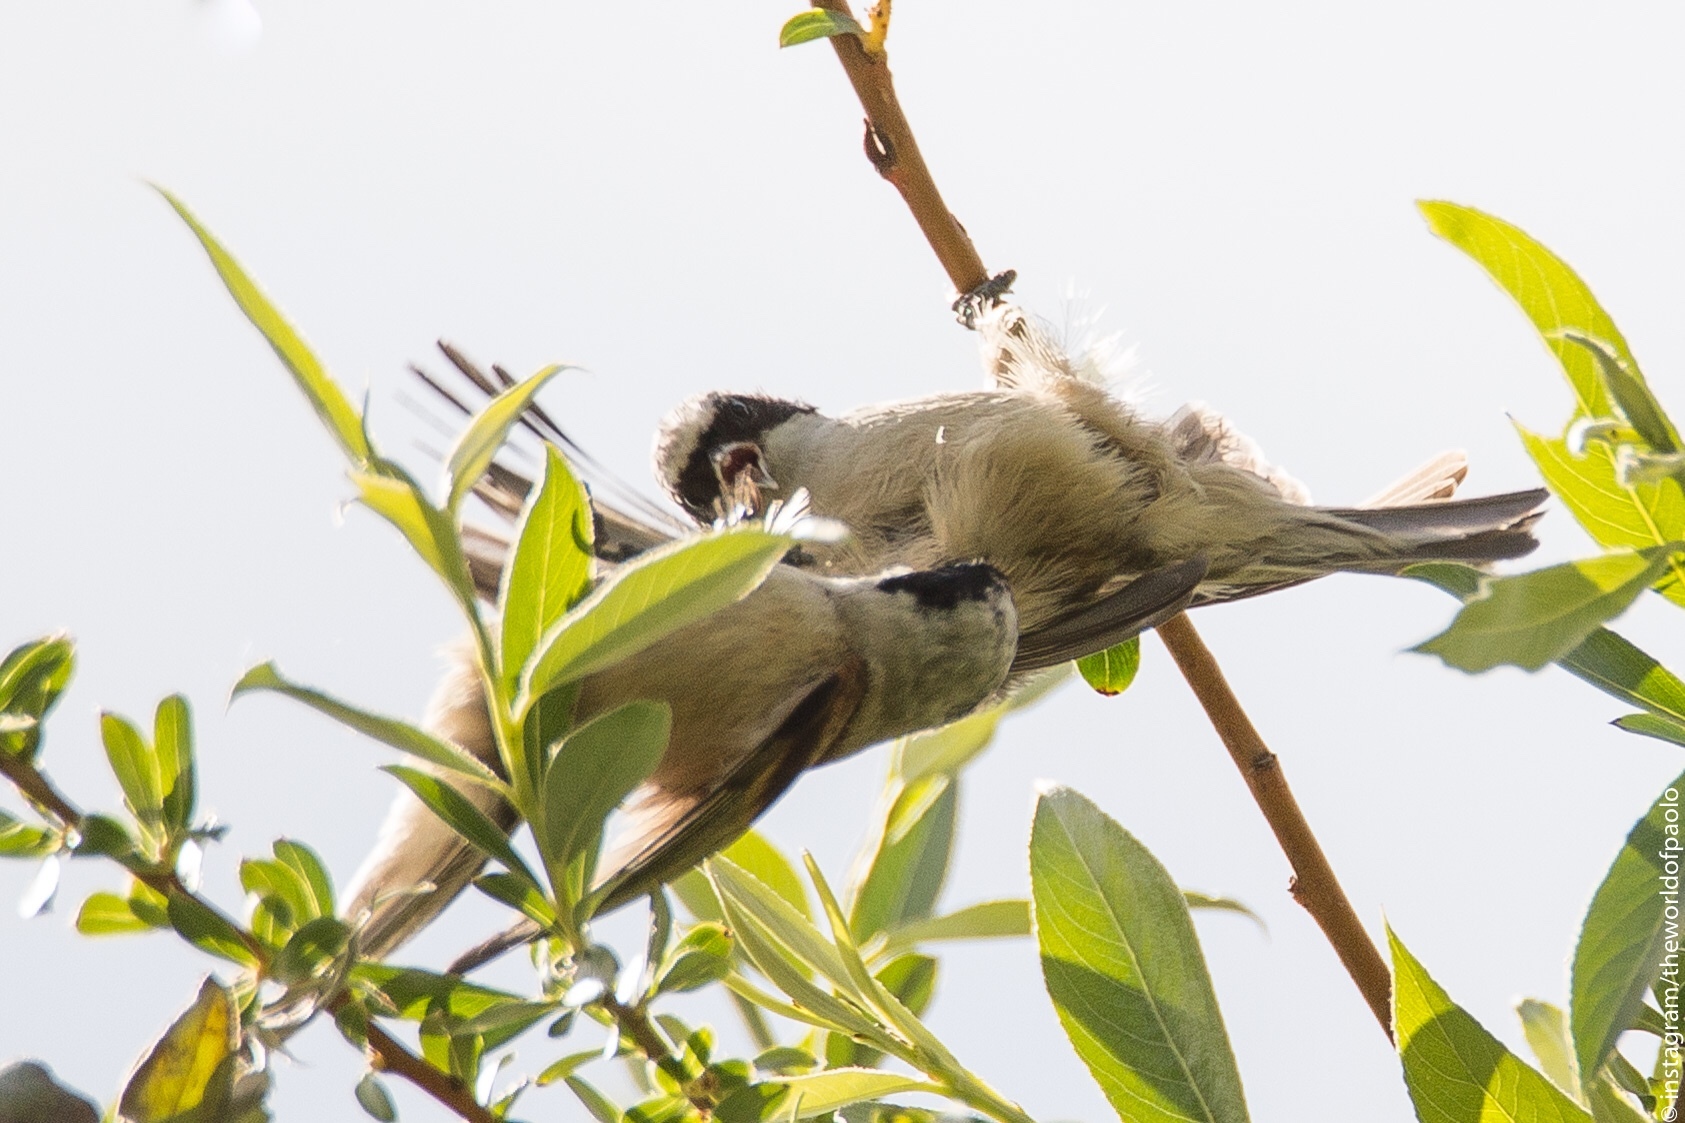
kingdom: Animalia
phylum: Chordata
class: Aves
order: Passeriformes
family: Remizidae
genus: Remiz
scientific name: Remiz pendulinus
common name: Eurasian penduline tit
